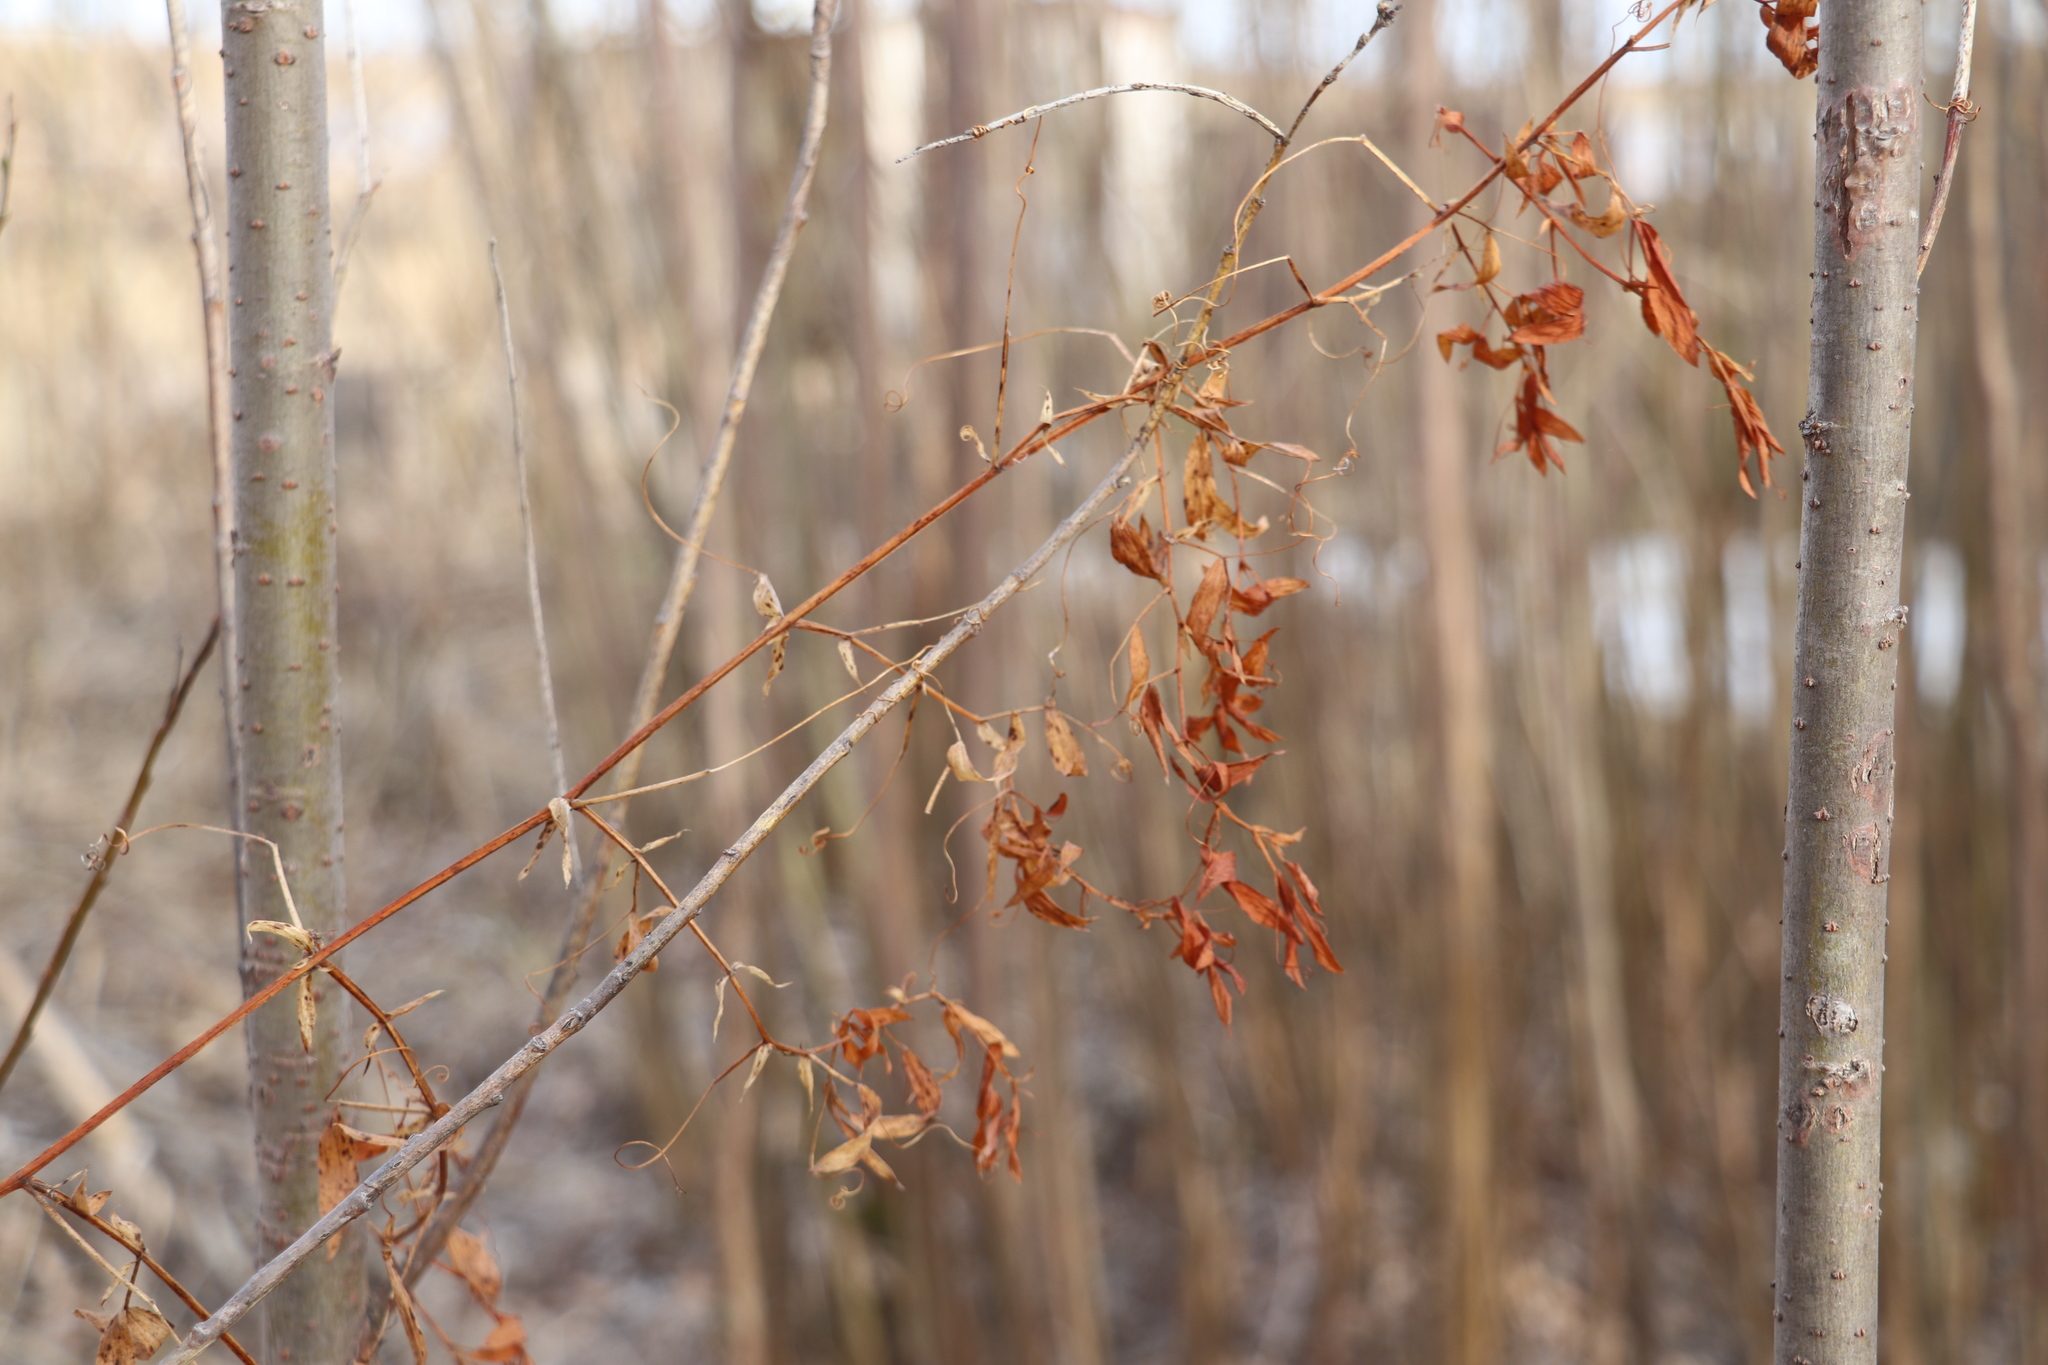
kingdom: Plantae
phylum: Tracheophyta
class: Magnoliopsida
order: Fabales
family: Fabaceae
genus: Lathyrus
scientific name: Lathyrus pratensis
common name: Meadow vetchling
